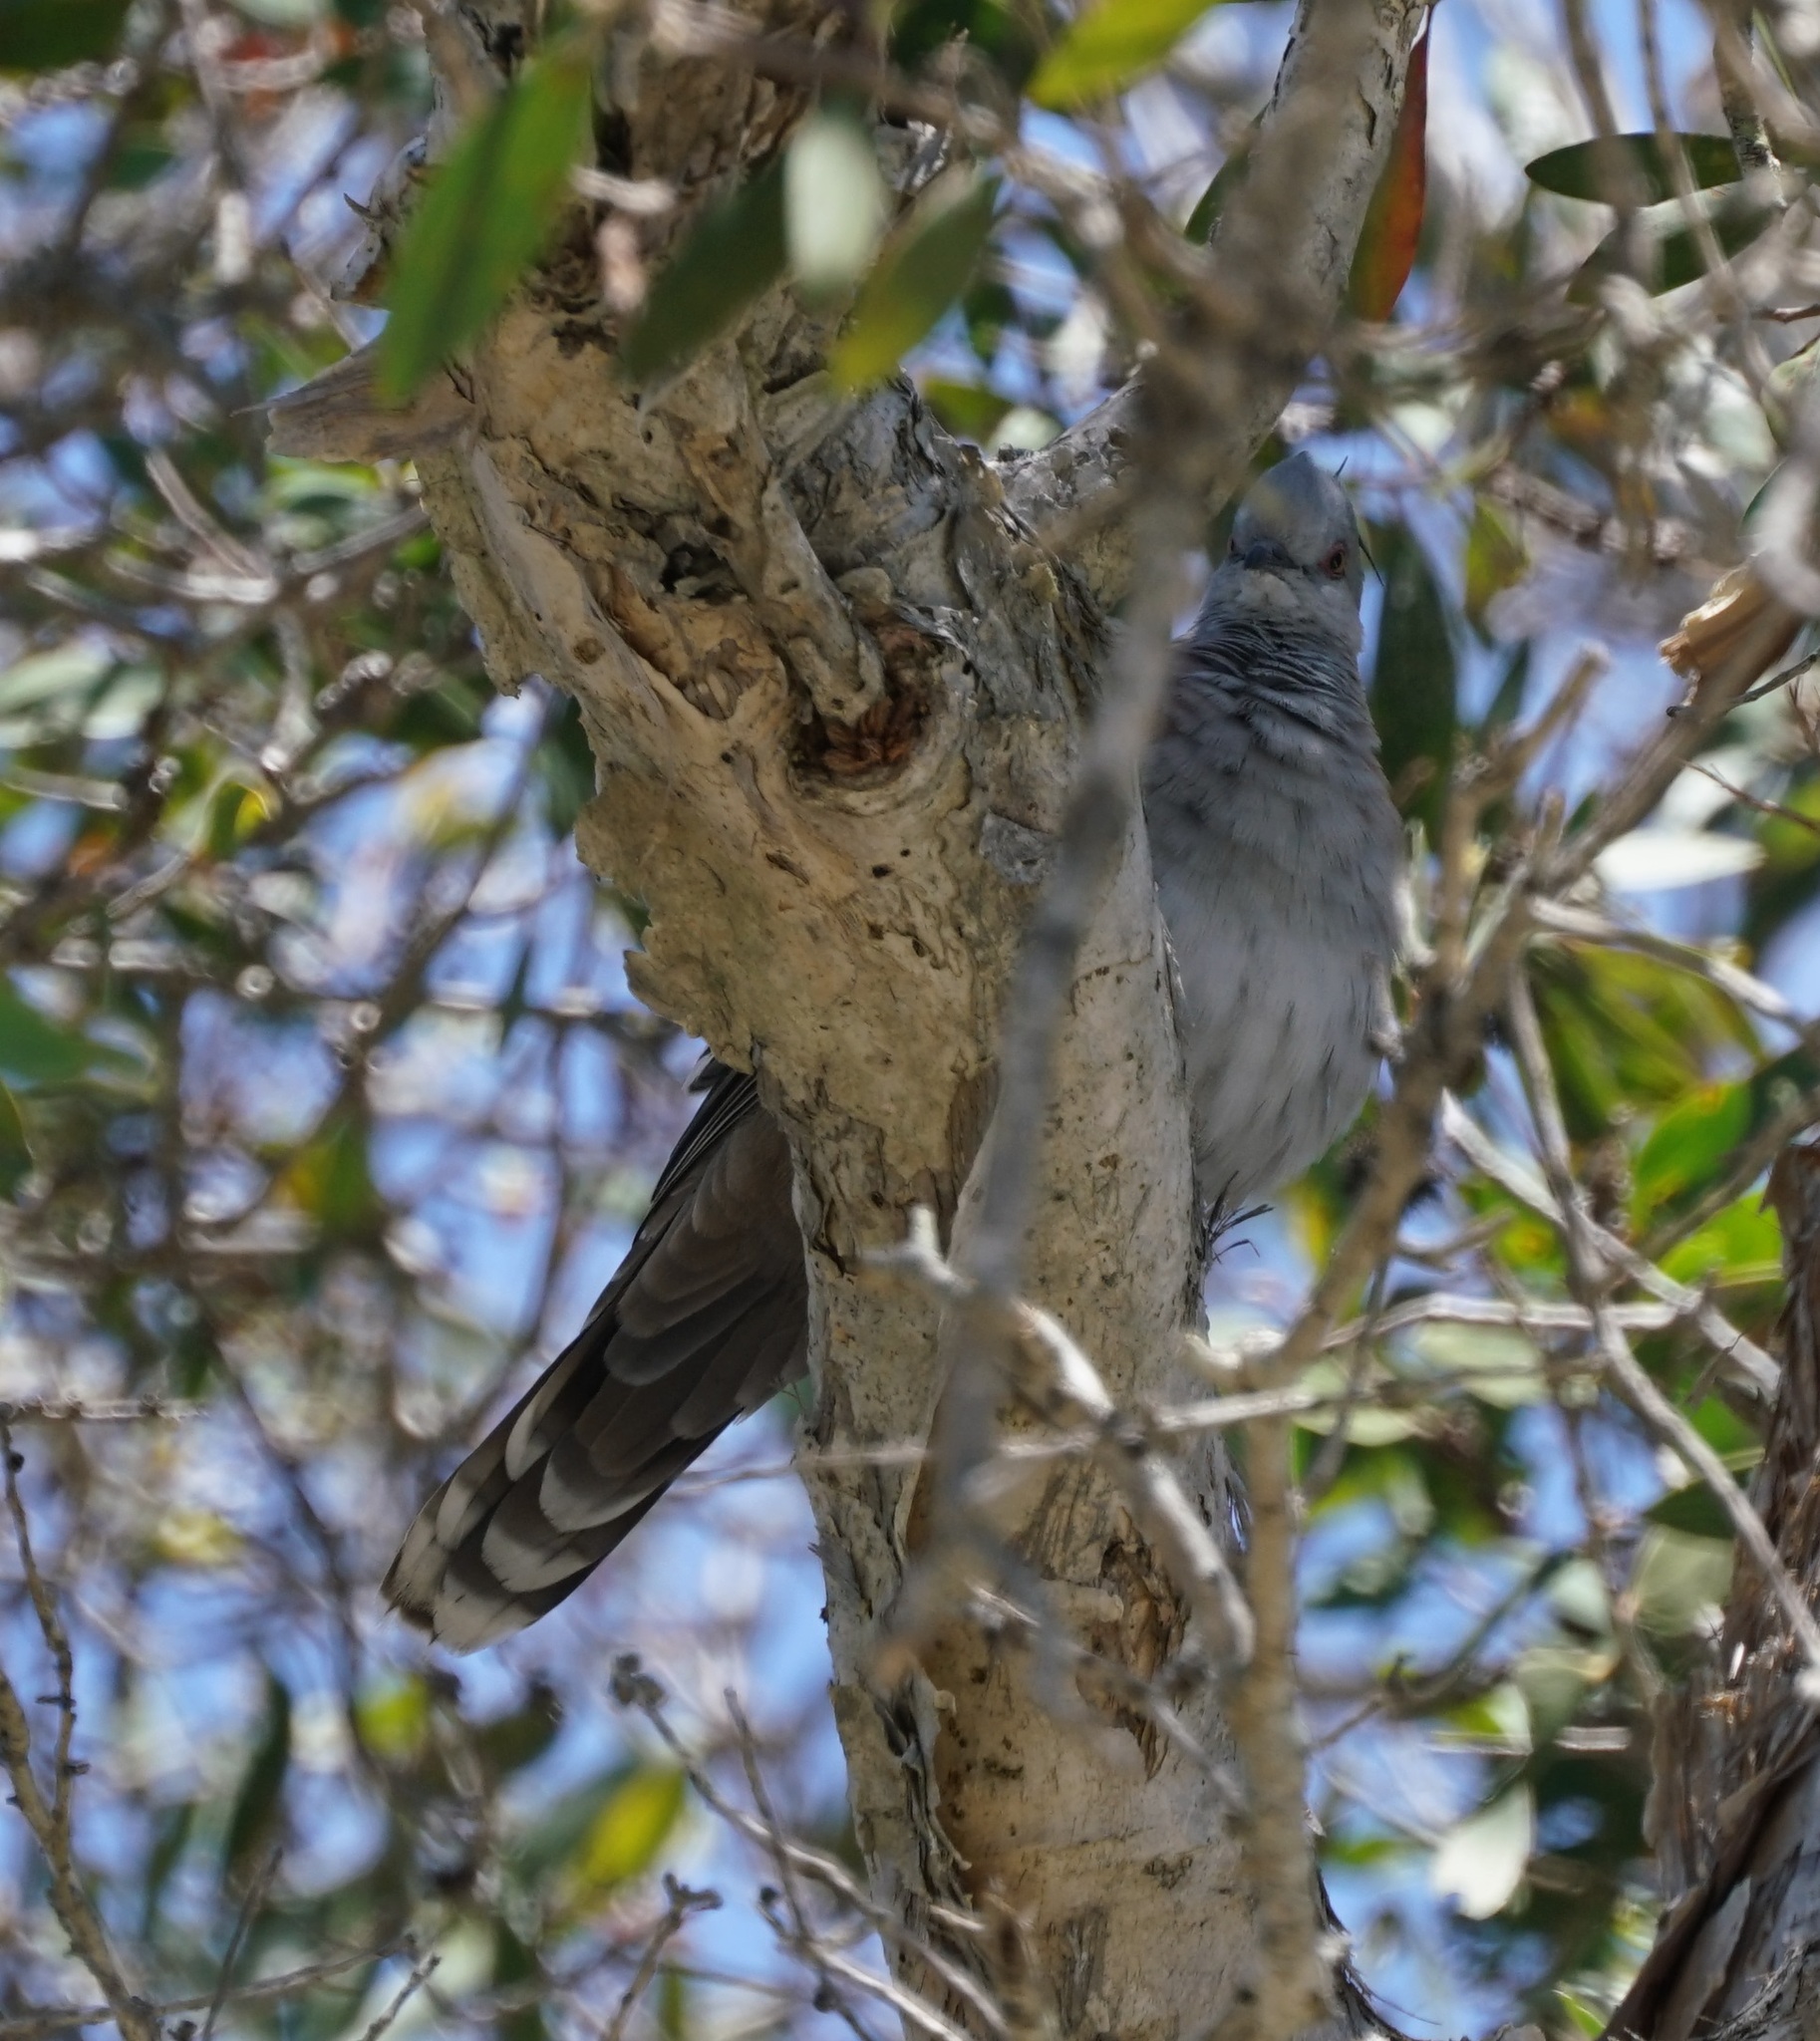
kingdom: Animalia
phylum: Chordata
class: Aves
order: Columbiformes
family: Columbidae
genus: Ocyphaps
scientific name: Ocyphaps lophotes
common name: Crested pigeon
